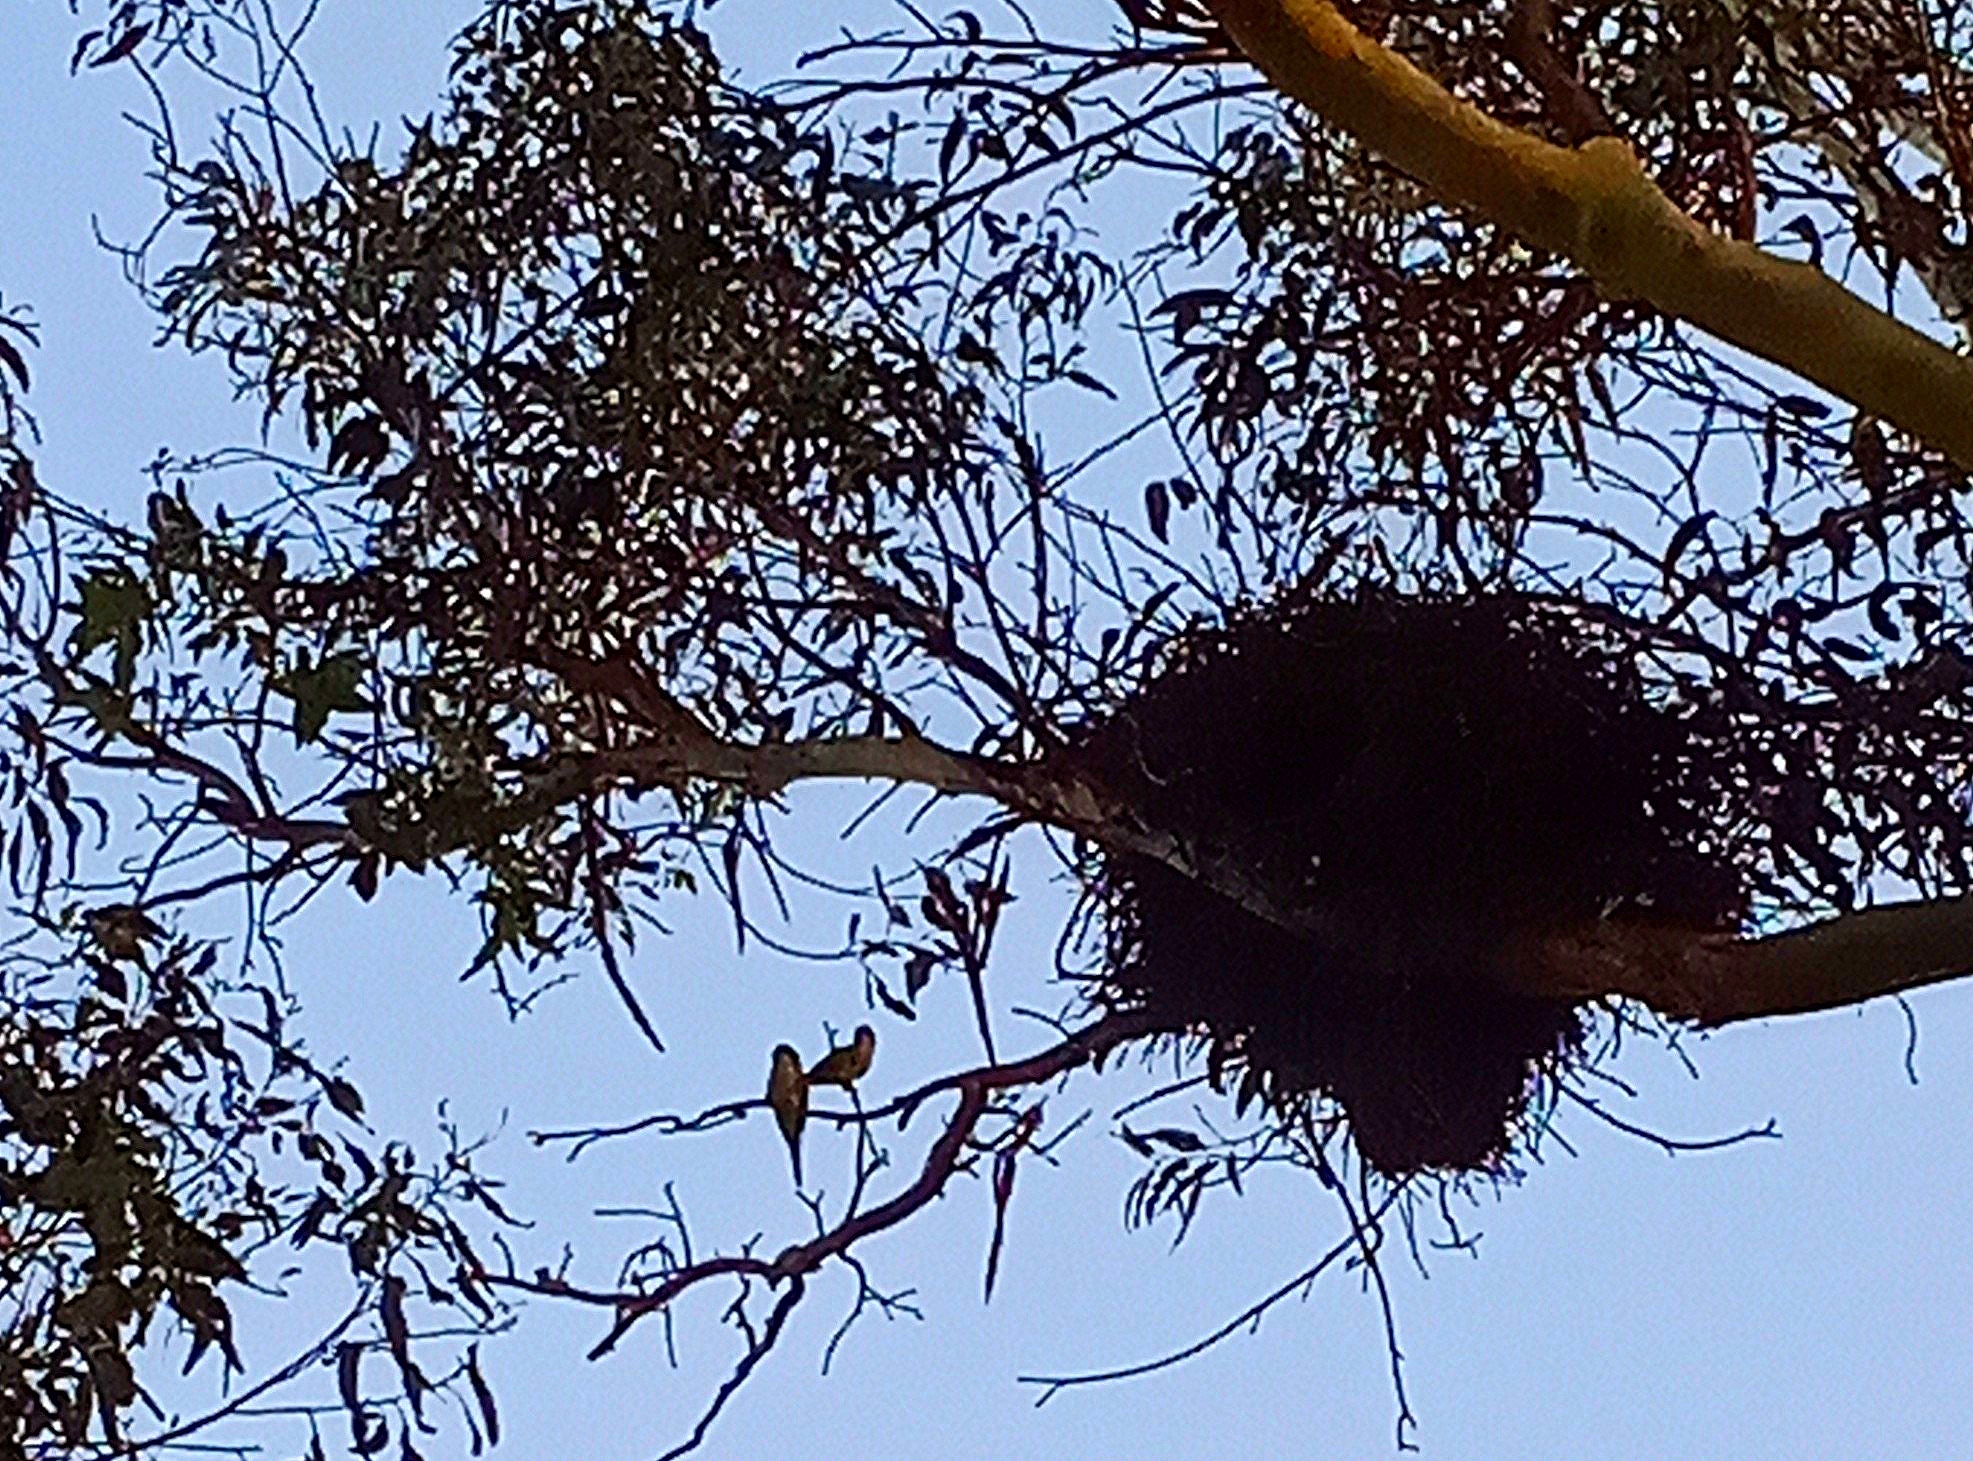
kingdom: Animalia
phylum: Chordata
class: Aves
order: Psittaciformes
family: Psittacidae
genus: Myiopsitta
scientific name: Myiopsitta monachus
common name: Monk parakeet
